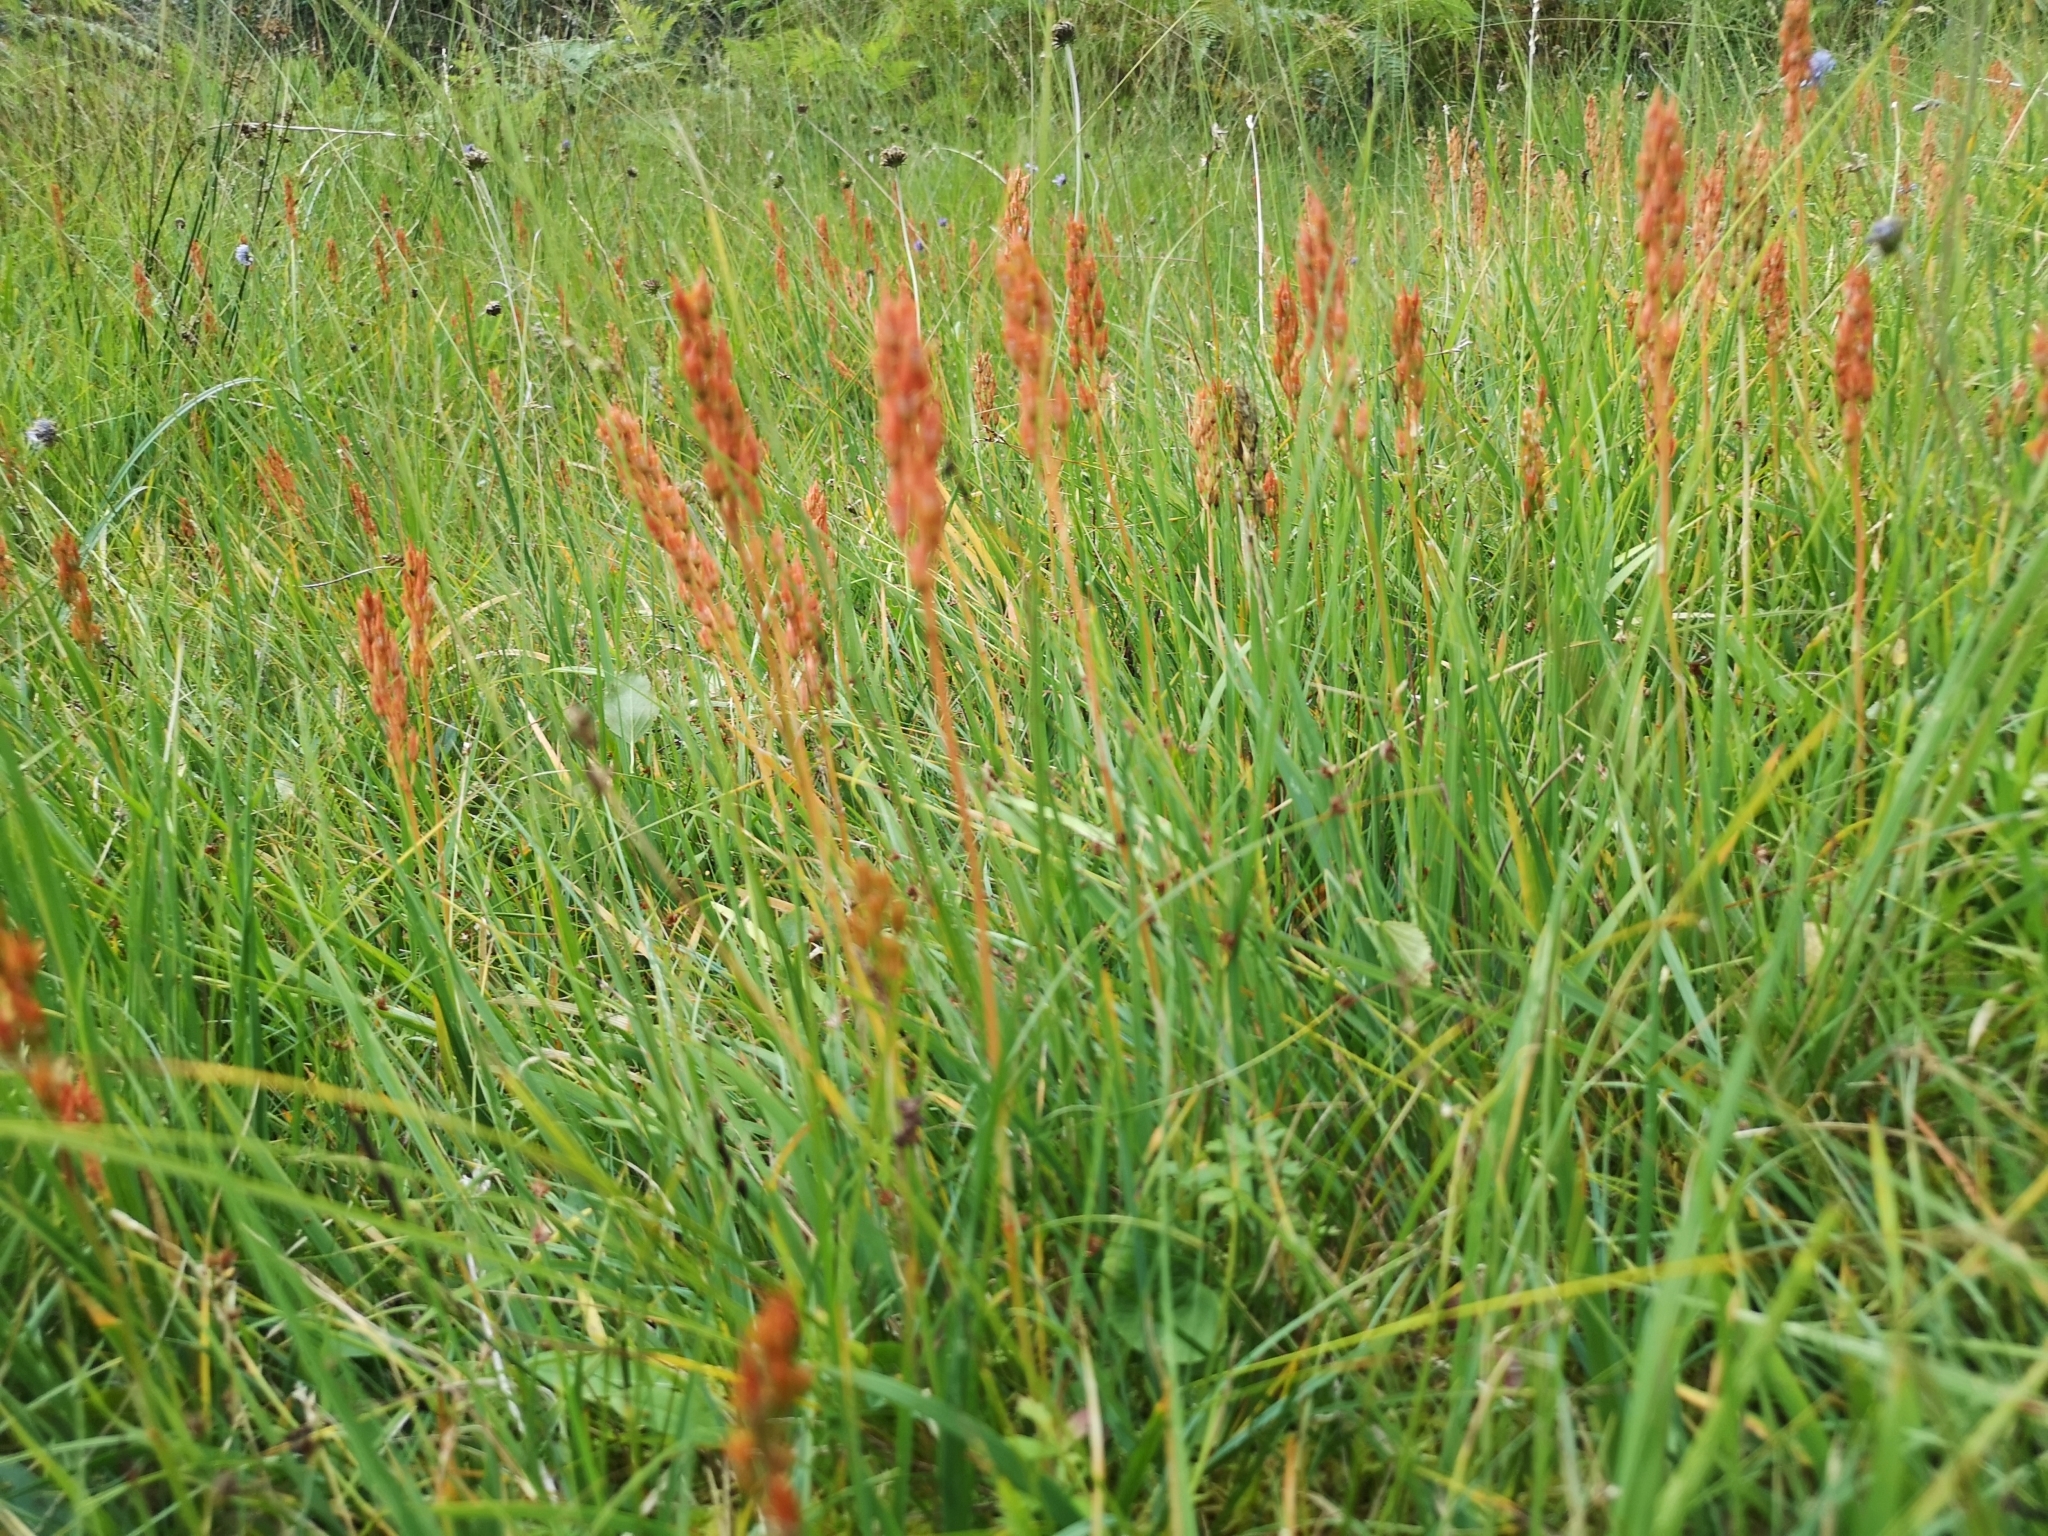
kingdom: Plantae
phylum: Tracheophyta
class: Liliopsida
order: Dioscoreales
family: Nartheciaceae
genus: Narthecium
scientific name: Narthecium ossifragum
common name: Bog asphodel
